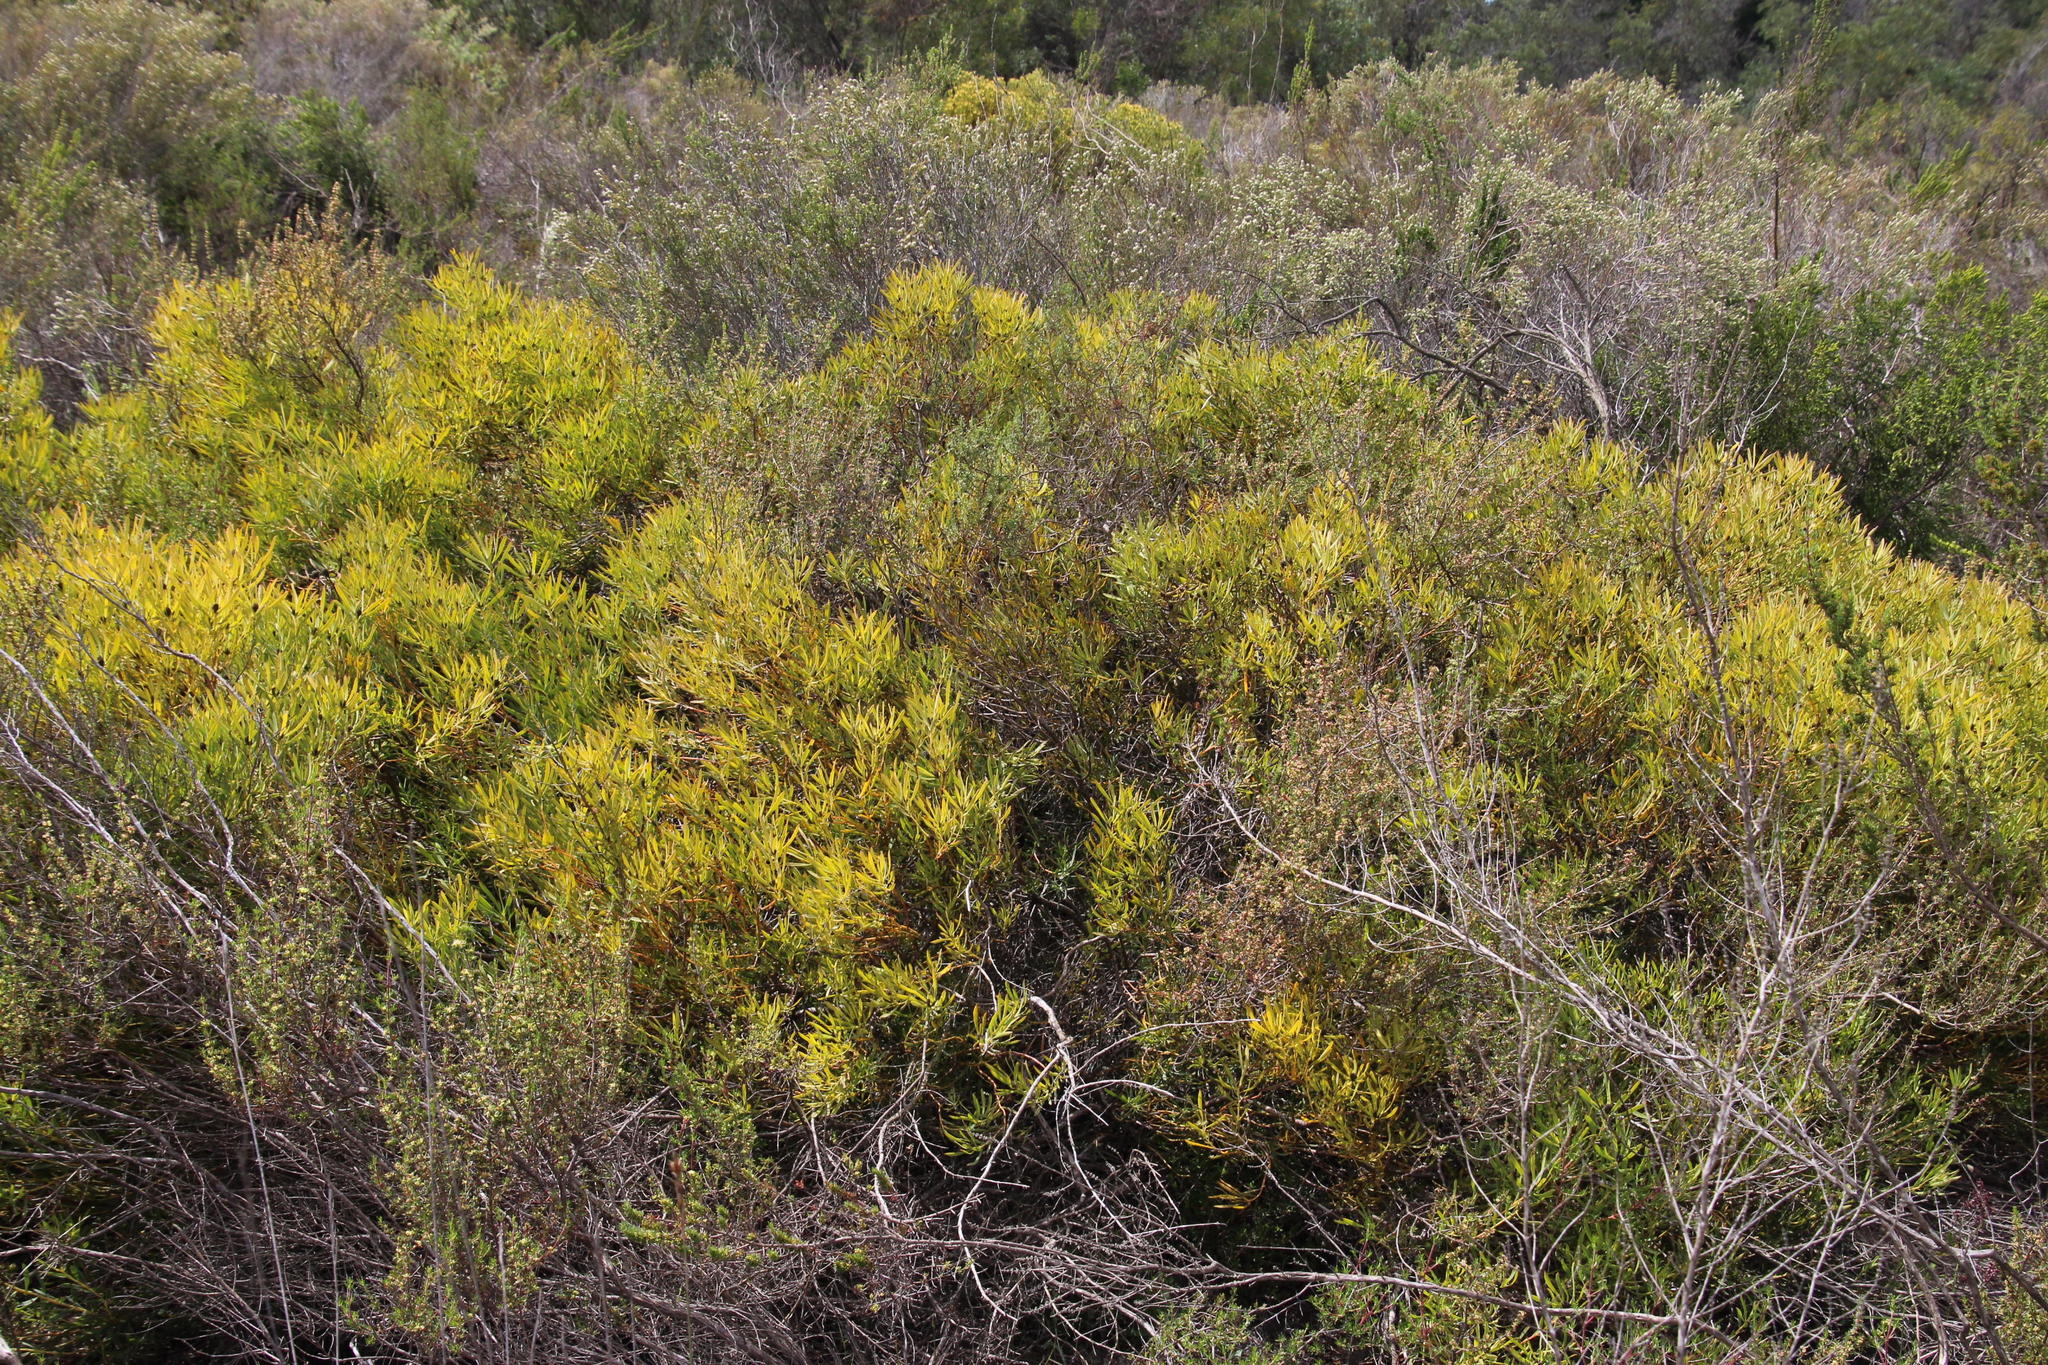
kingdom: Plantae
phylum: Tracheophyta
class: Magnoliopsida
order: Proteales
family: Proteaceae
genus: Leucadendron
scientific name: Leucadendron salignum
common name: Common sunshine conebush
